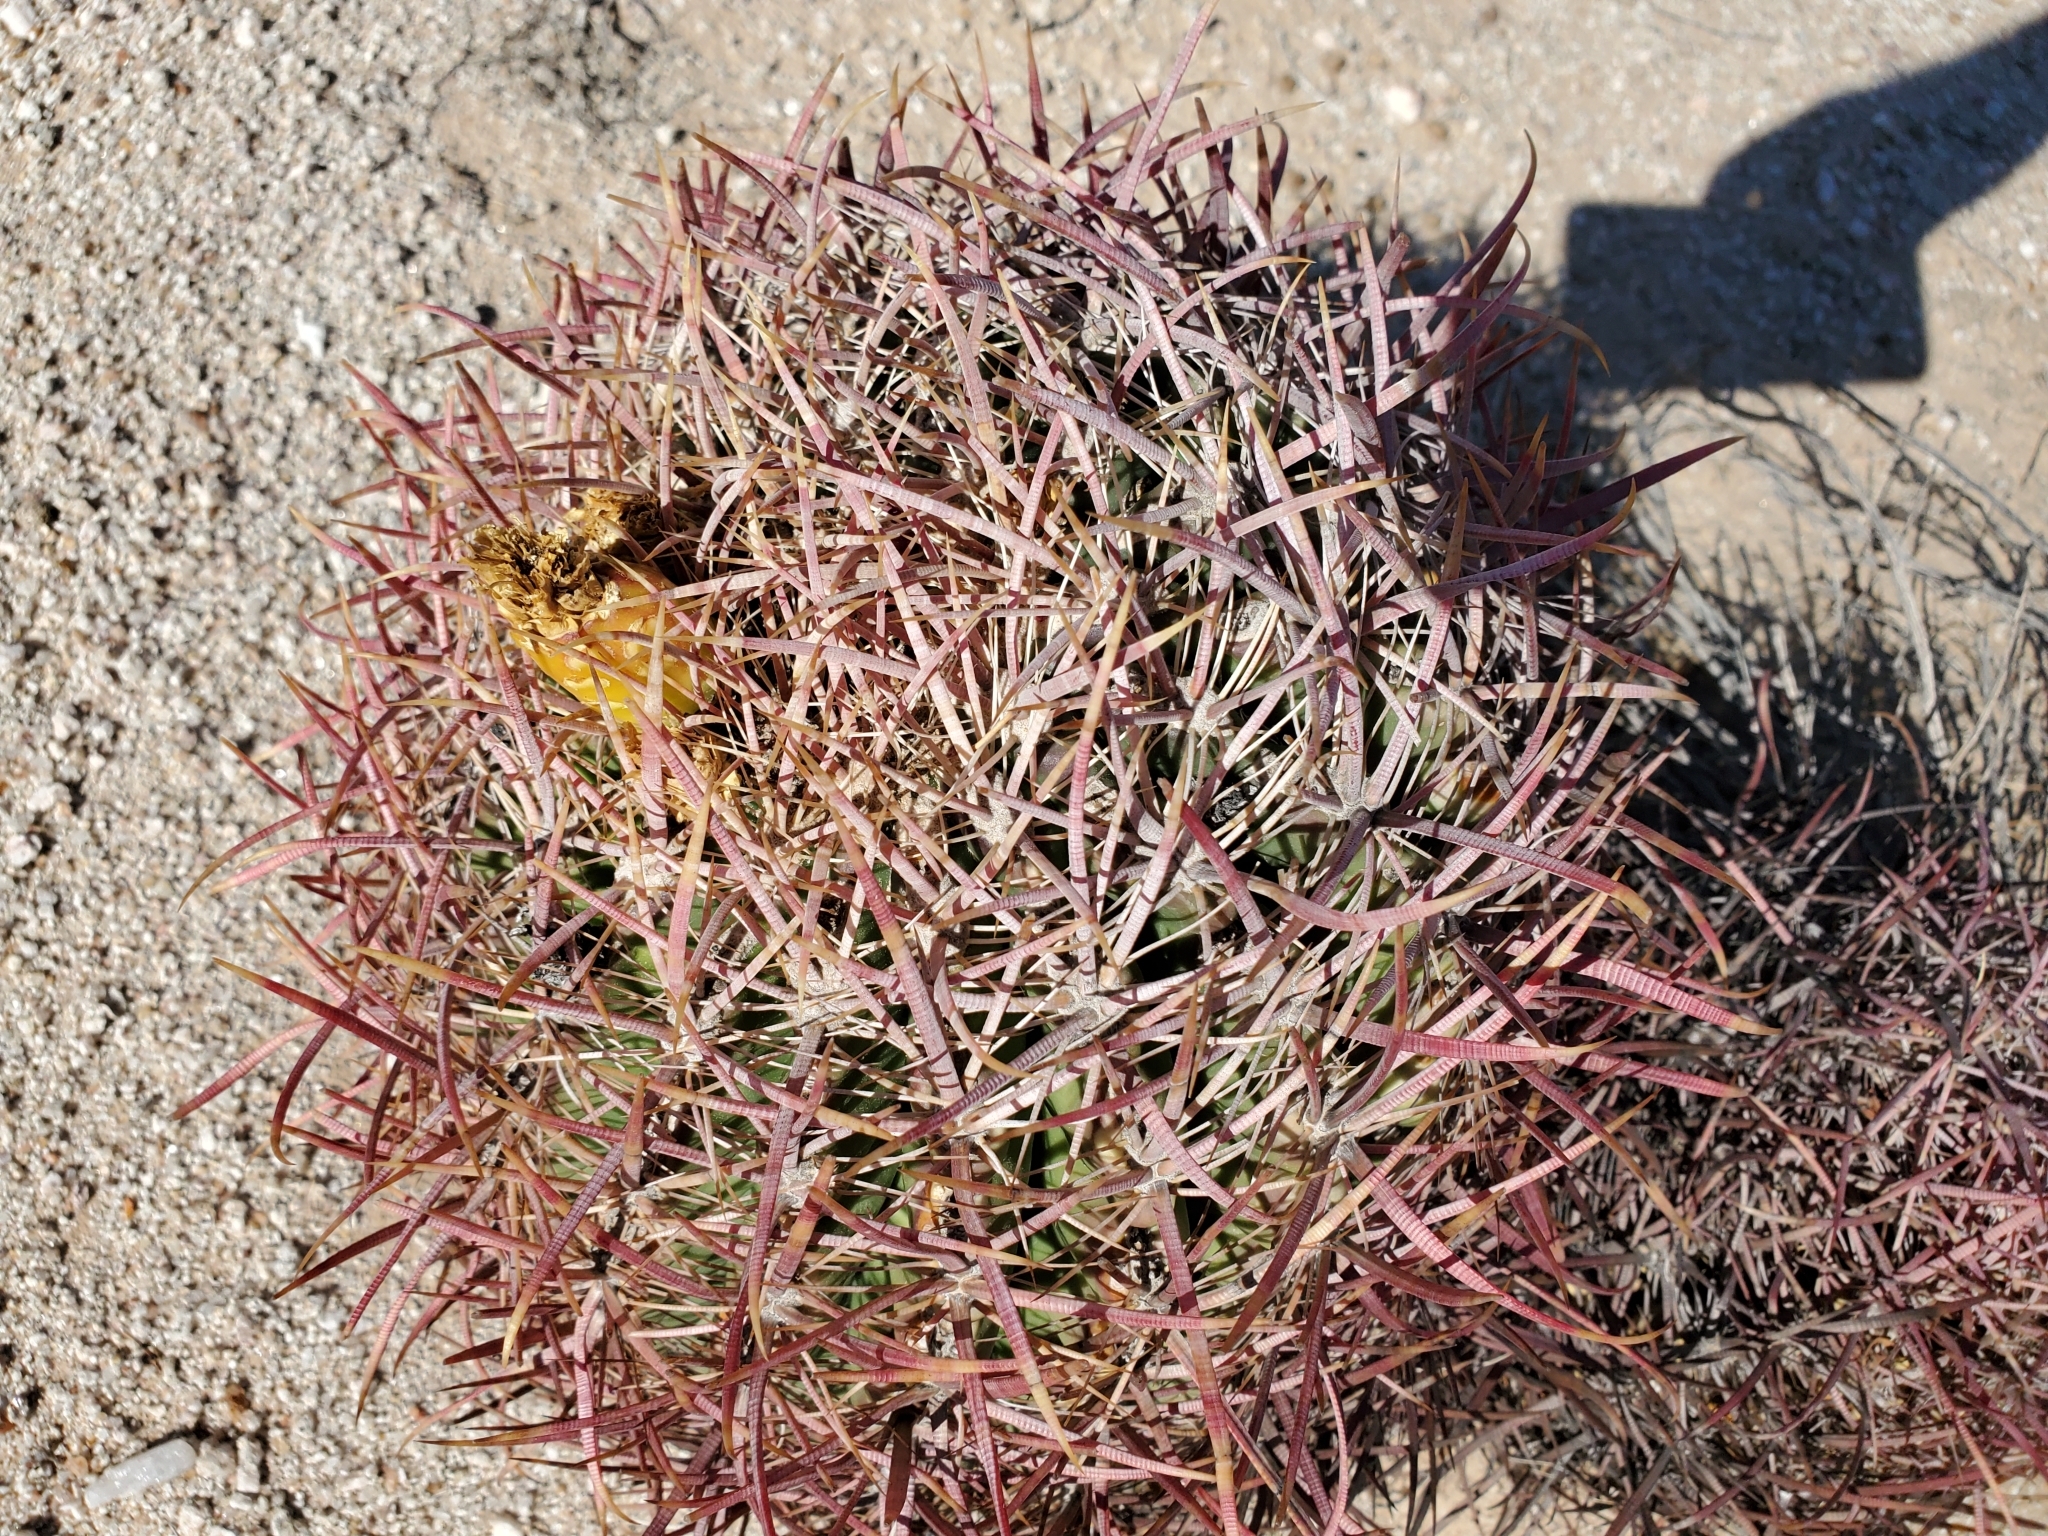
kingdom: Plantae
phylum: Tracheophyta
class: Magnoliopsida
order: Caryophyllales
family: Cactaceae
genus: Ferocactus
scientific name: Ferocactus cylindraceus
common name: California barrel cactus
